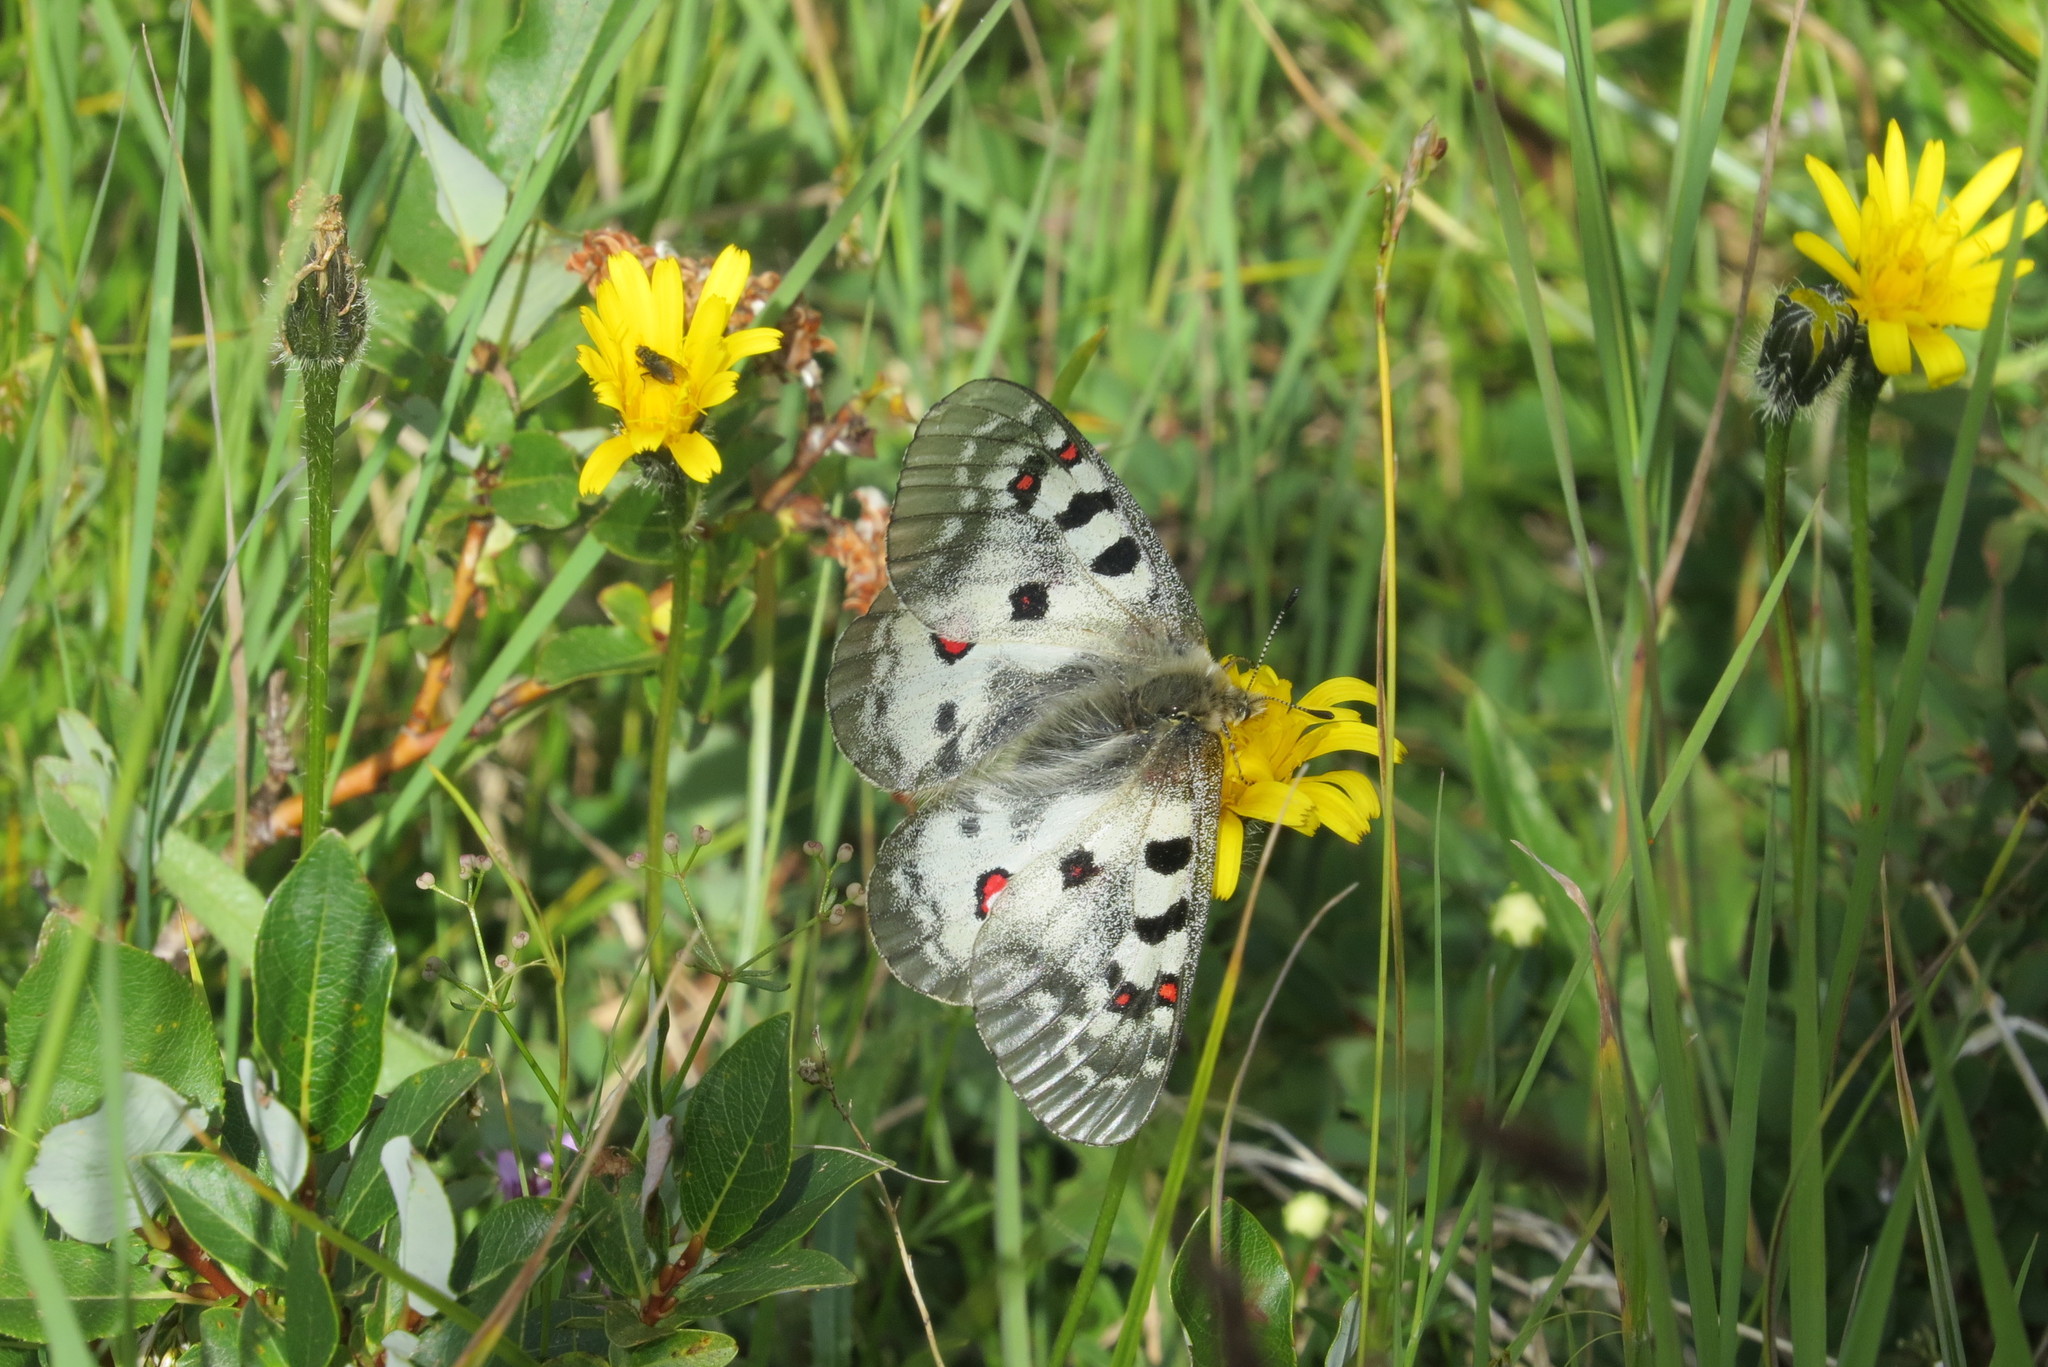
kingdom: Animalia
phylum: Arthropoda
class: Insecta
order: Lepidoptera
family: Papilionidae
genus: Parnassius
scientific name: Parnassius phoebus
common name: Small apollo
